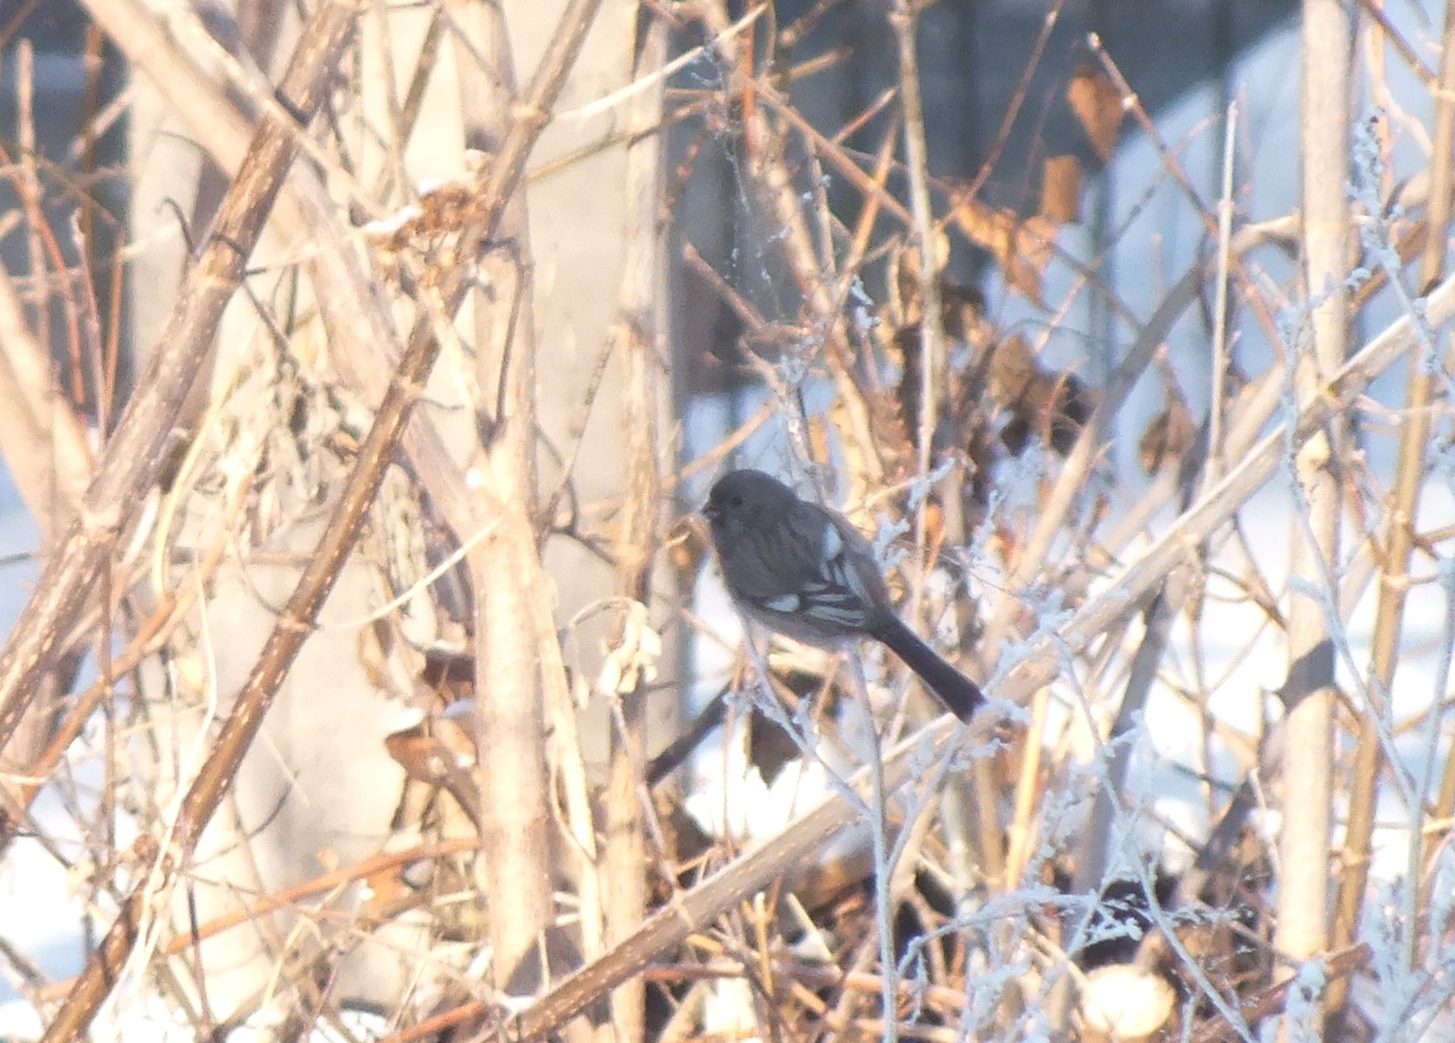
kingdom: Animalia
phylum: Chordata
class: Aves
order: Passeriformes
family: Fringillidae
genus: Carpodacus
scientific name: Carpodacus sibiricus
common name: Long-tailed rosefinch
